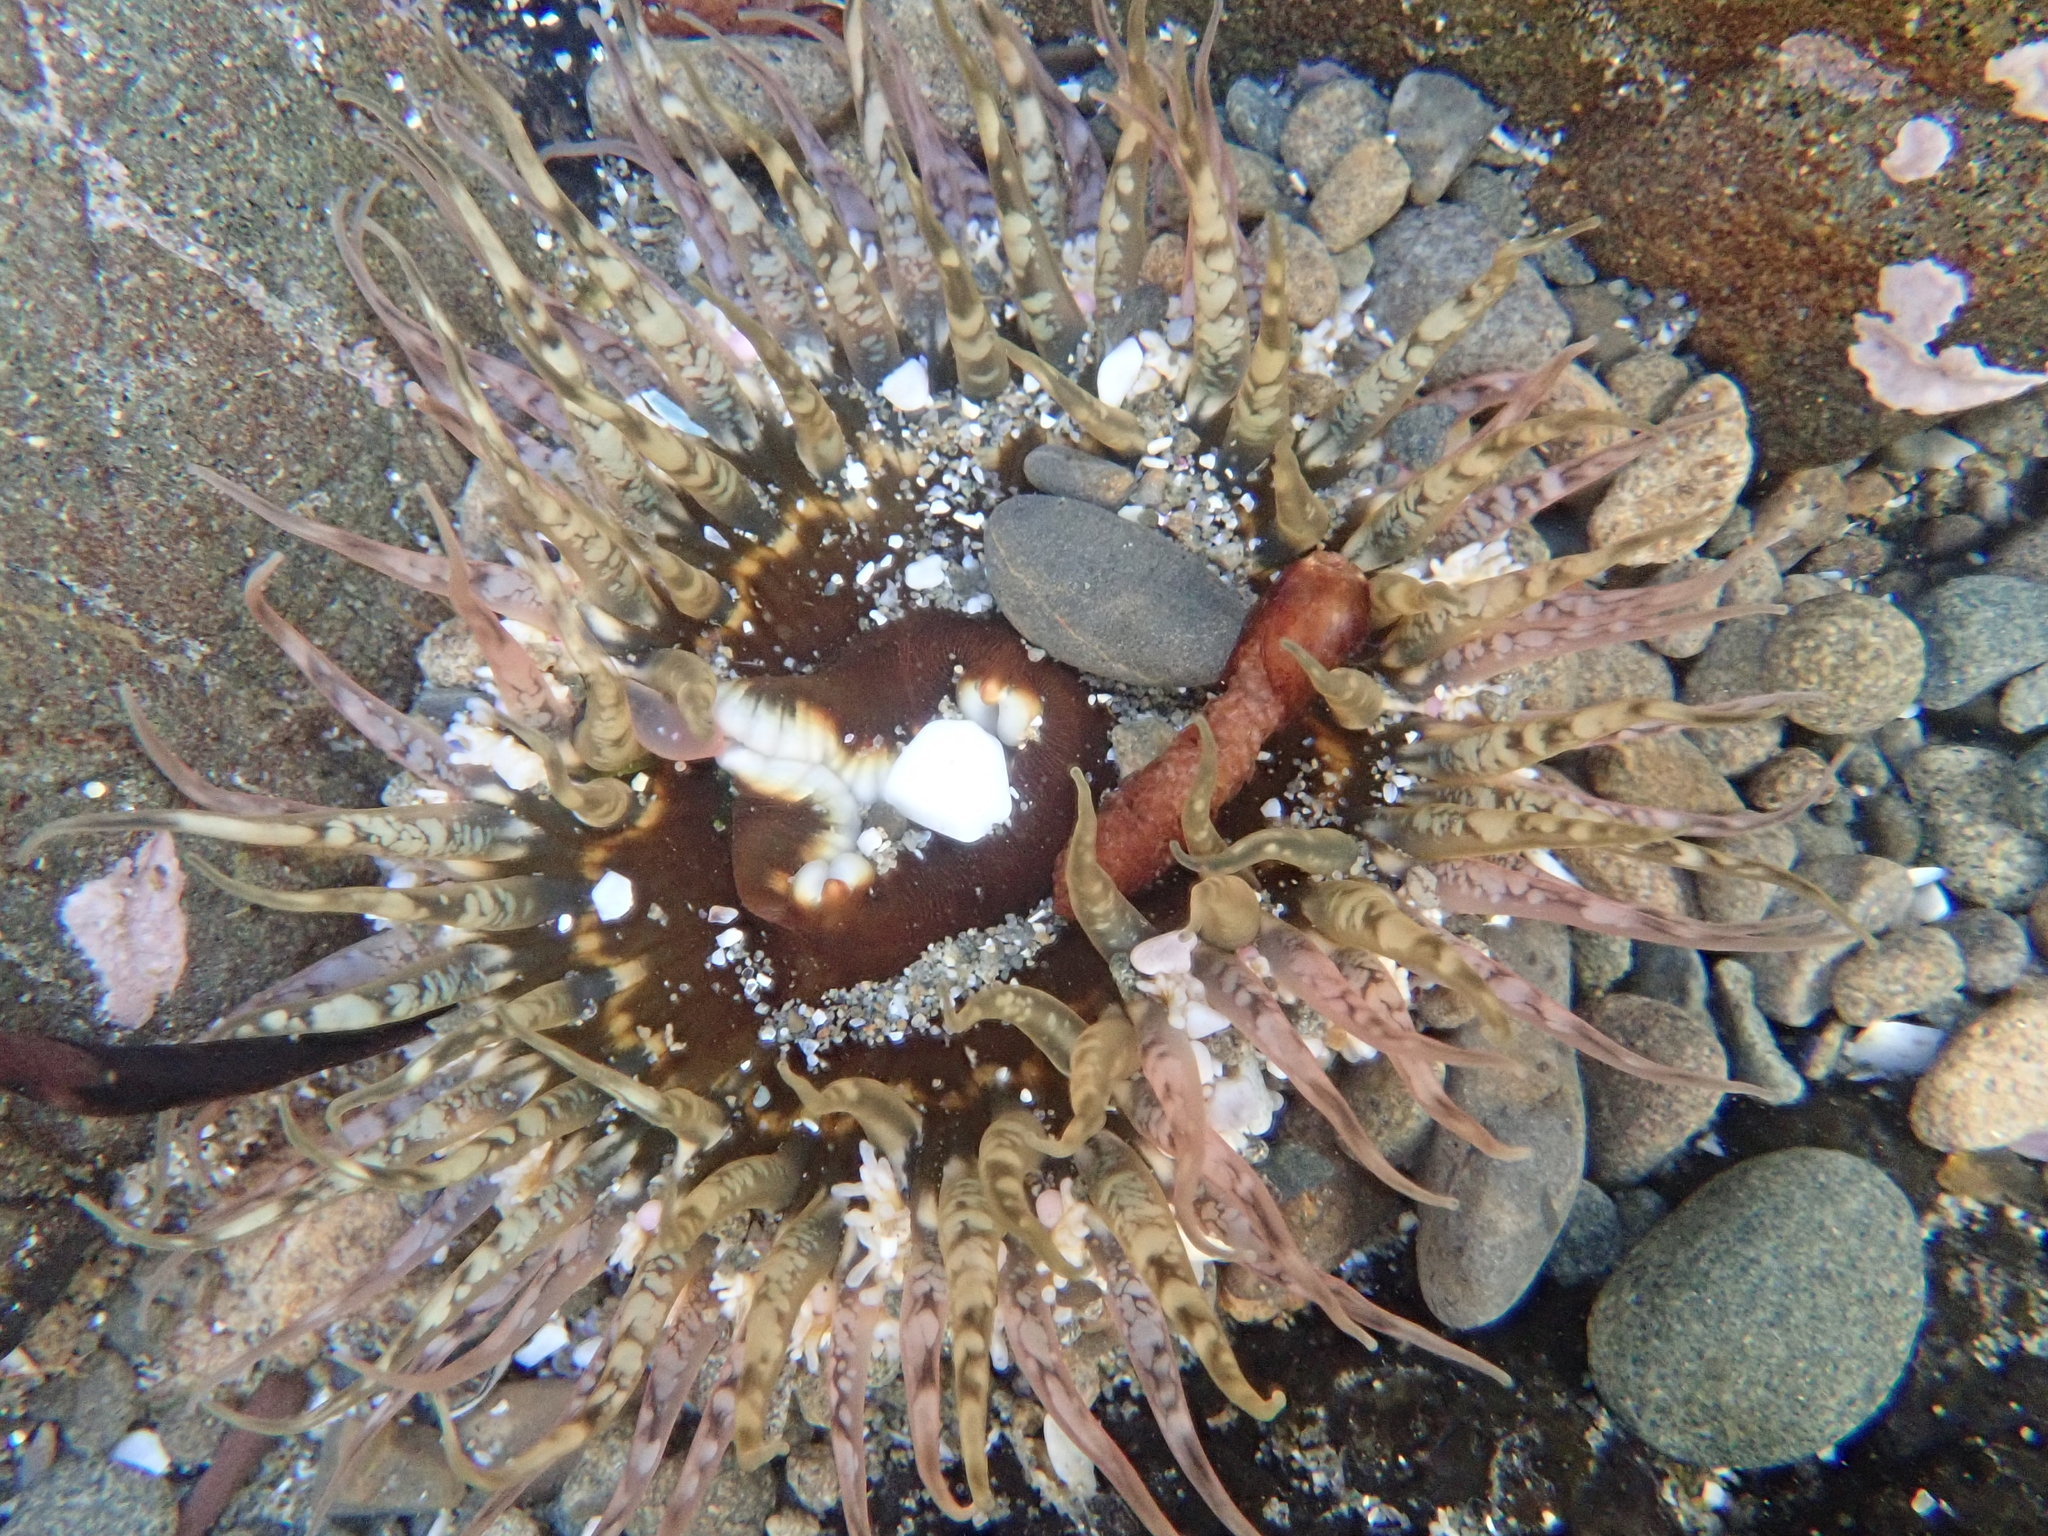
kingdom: Animalia
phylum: Cnidaria
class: Anthozoa
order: Actiniaria
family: Actiniidae
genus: Oulactis
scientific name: Oulactis muscosa
